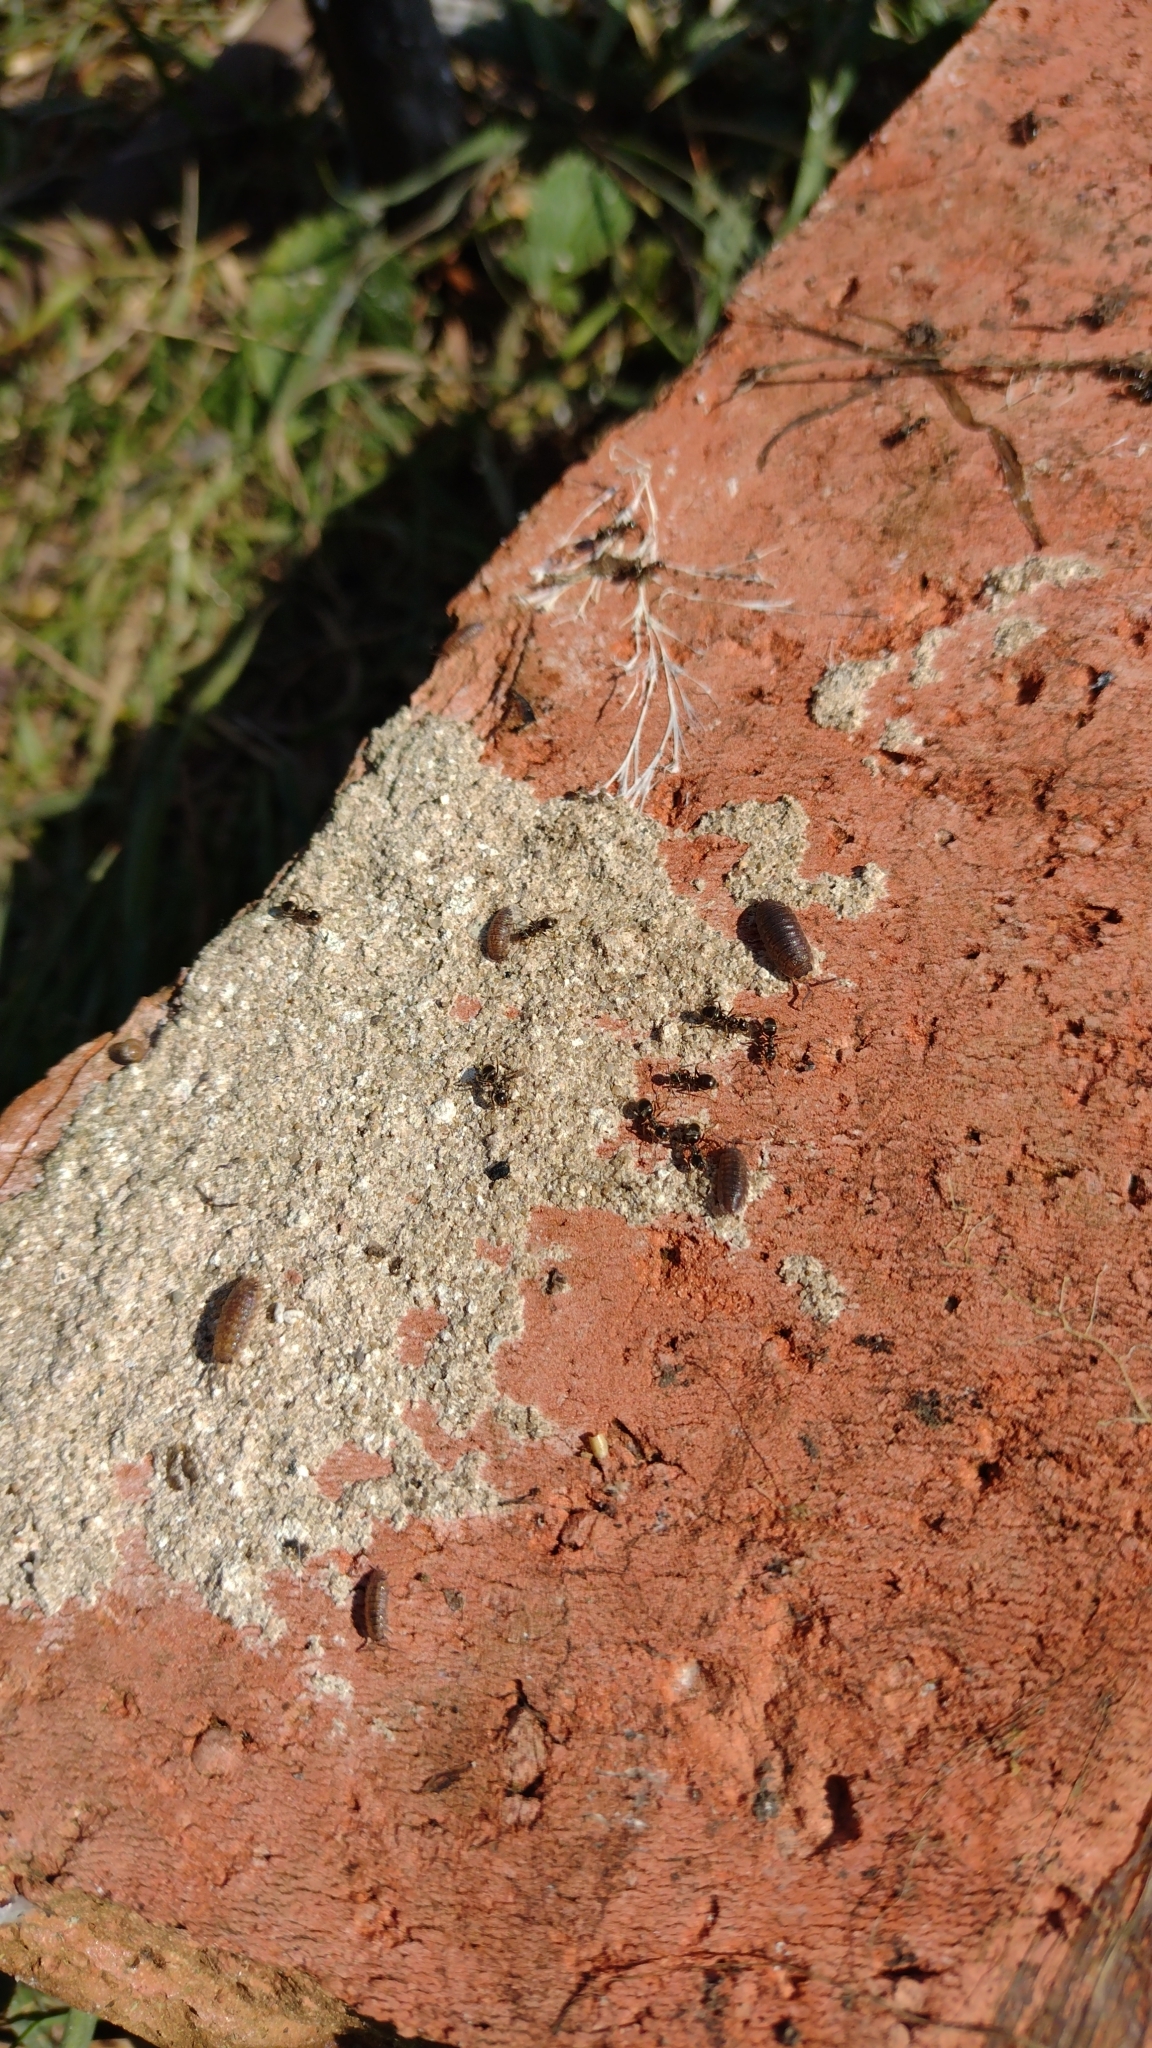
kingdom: Animalia
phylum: Arthropoda
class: Malacostraca
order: Isopoda
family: Porcellionidae
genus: Porcellio
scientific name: Porcellio scaber
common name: Common rough woodlouse
